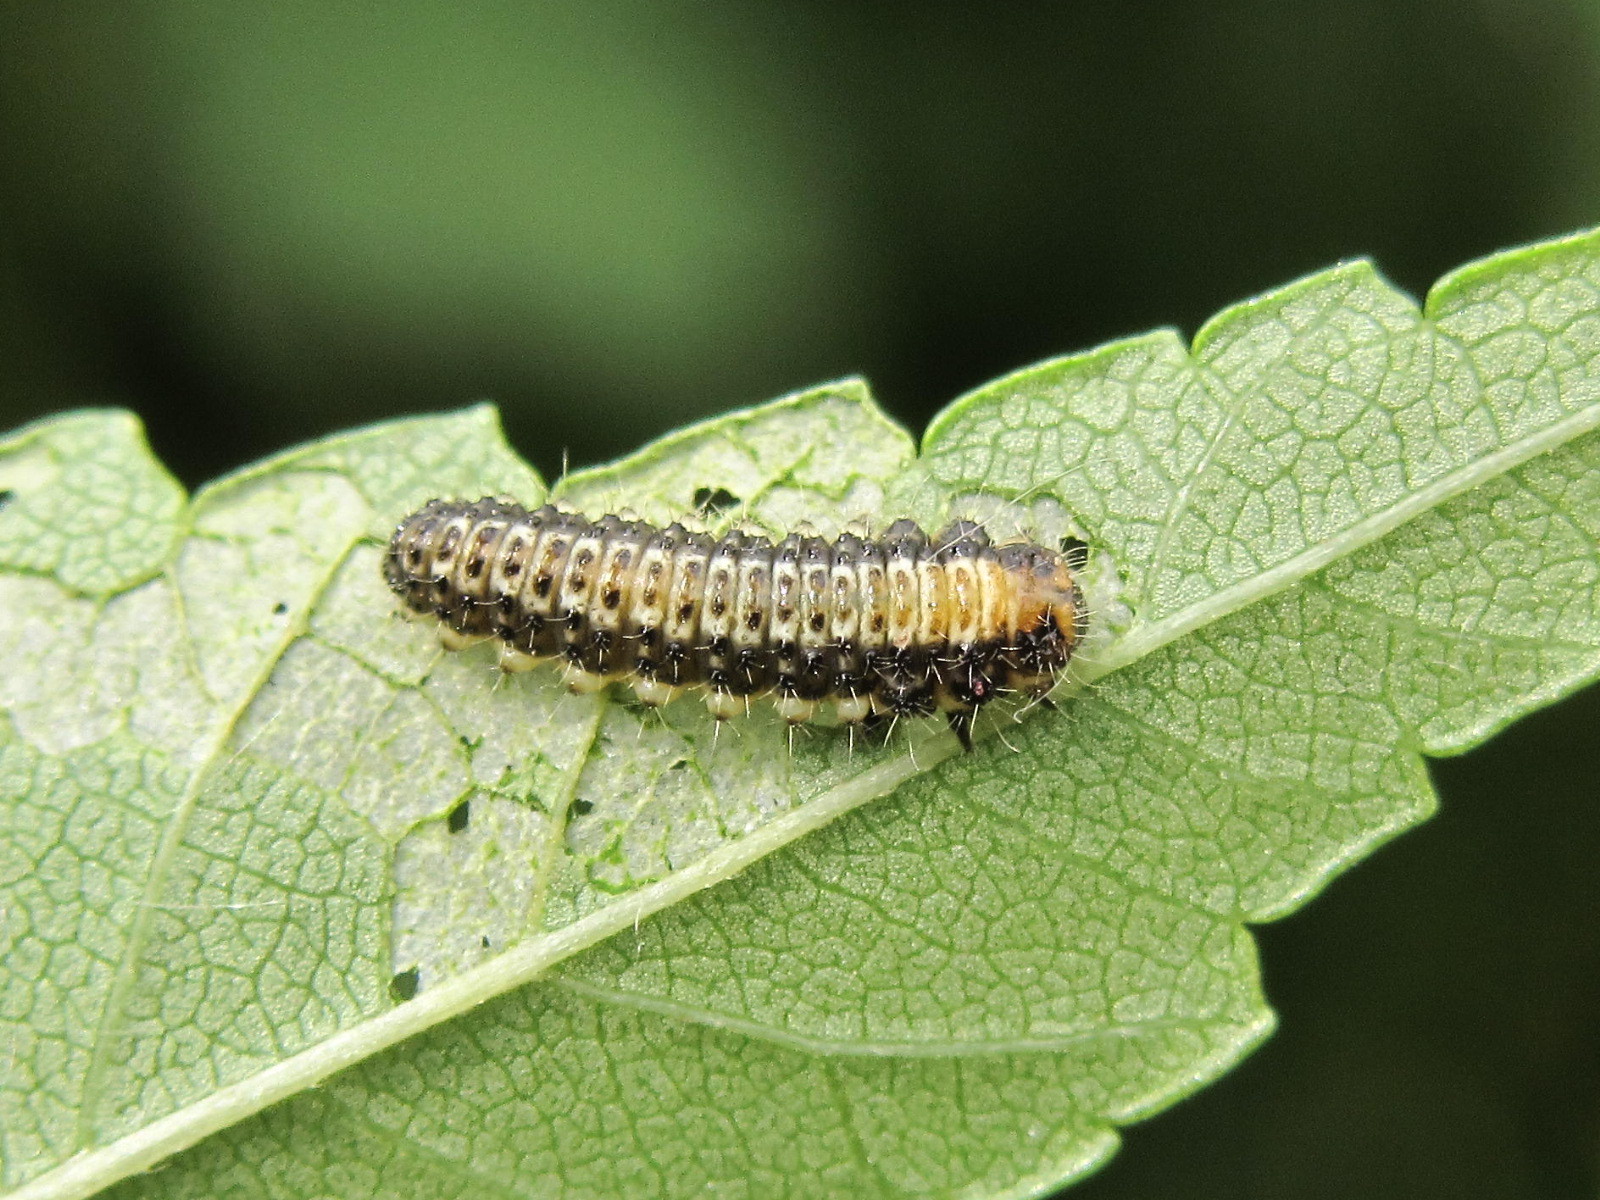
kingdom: Animalia
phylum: Arthropoda
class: Insecta
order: Coleoptera
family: Chrysomelidae
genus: Xanthogaleruca
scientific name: Xanthogaleruca luteola
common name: Elm leaf beetle
